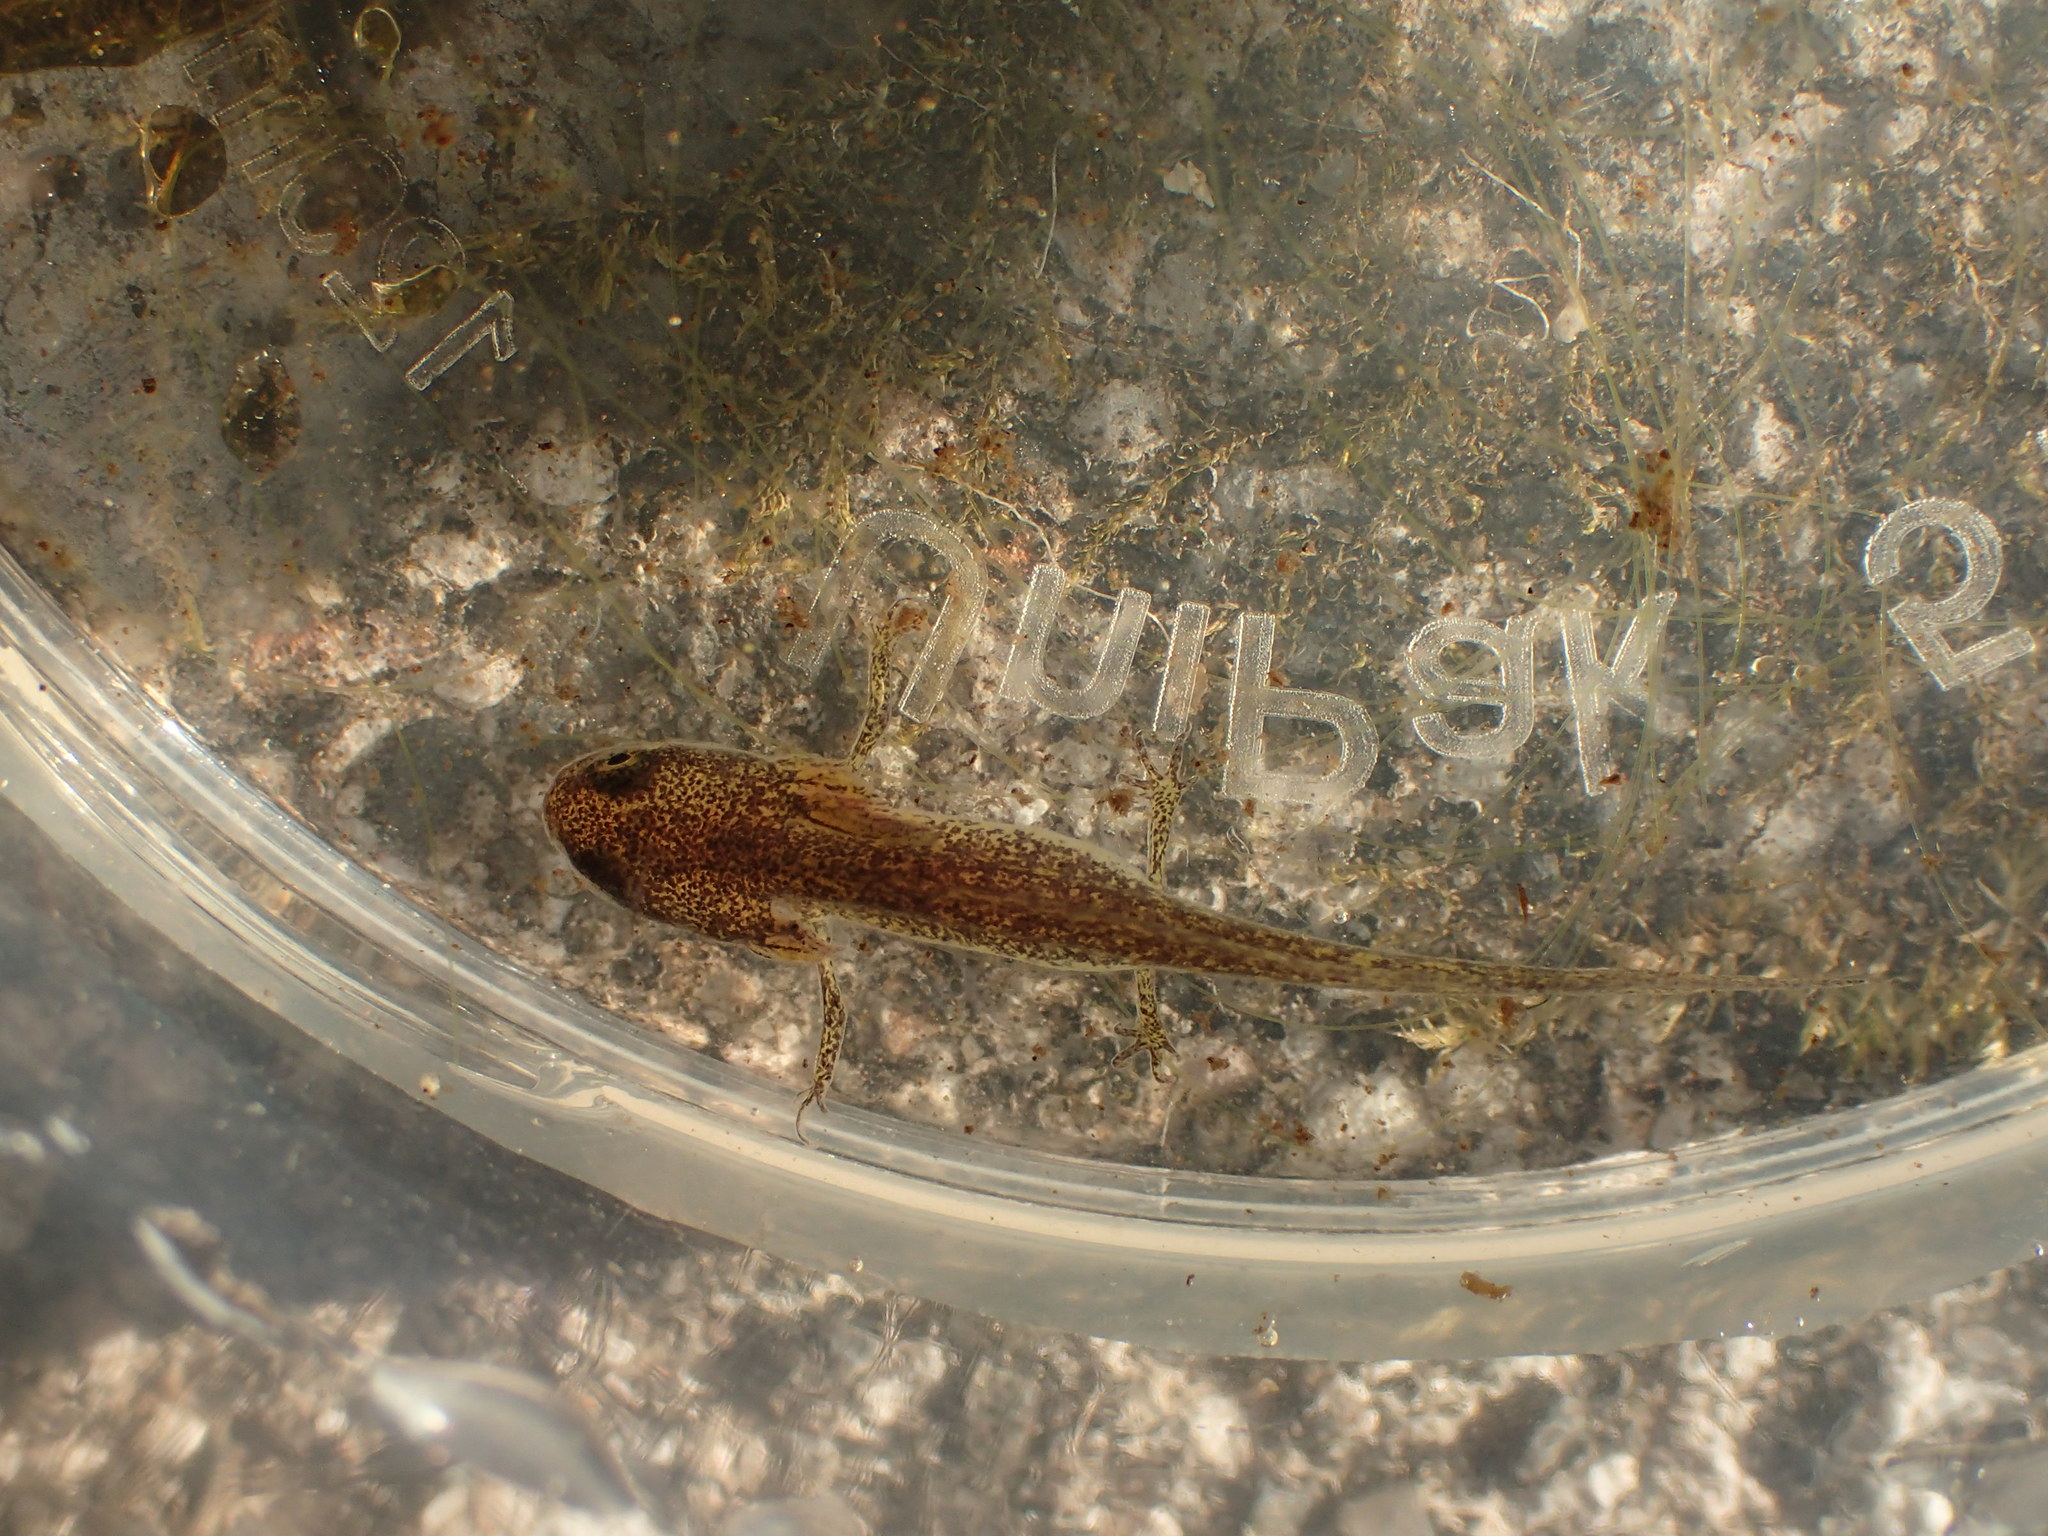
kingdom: Animalia
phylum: Chordata
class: Amphibia
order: Caudata
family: Salamandridae
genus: Lissotriton
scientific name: Lissotriton
